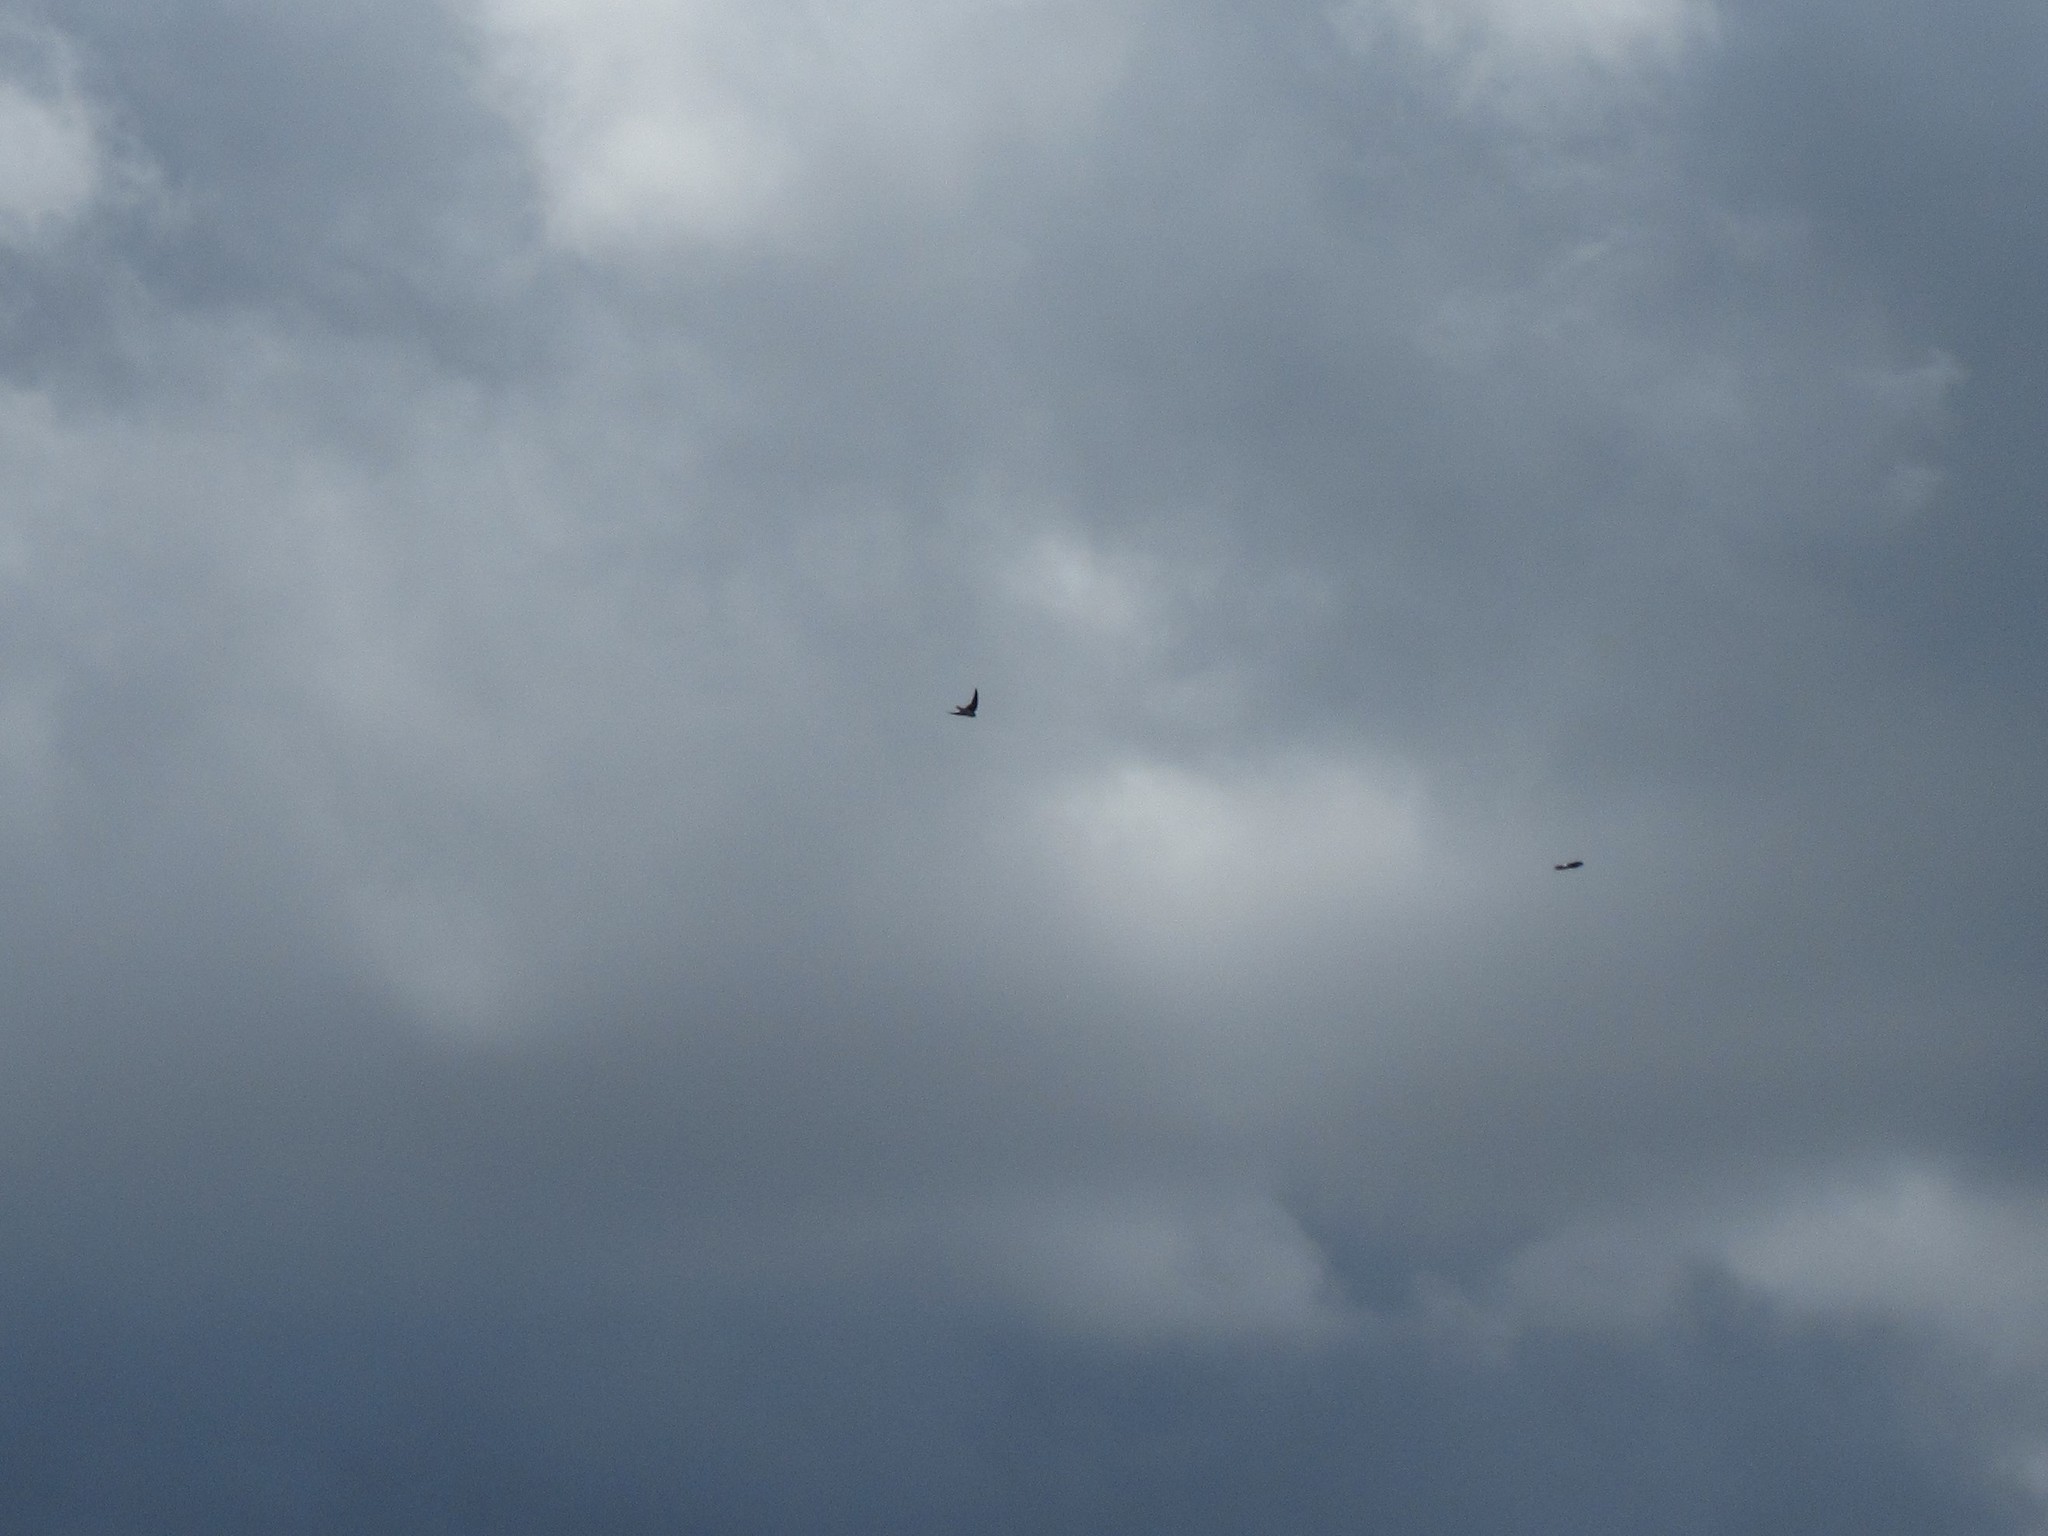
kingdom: Animalia
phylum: Chordata
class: Aves
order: Passeriformes
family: Hirundinidae
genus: Delichon
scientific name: Delichon urbicum
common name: Common house martin
